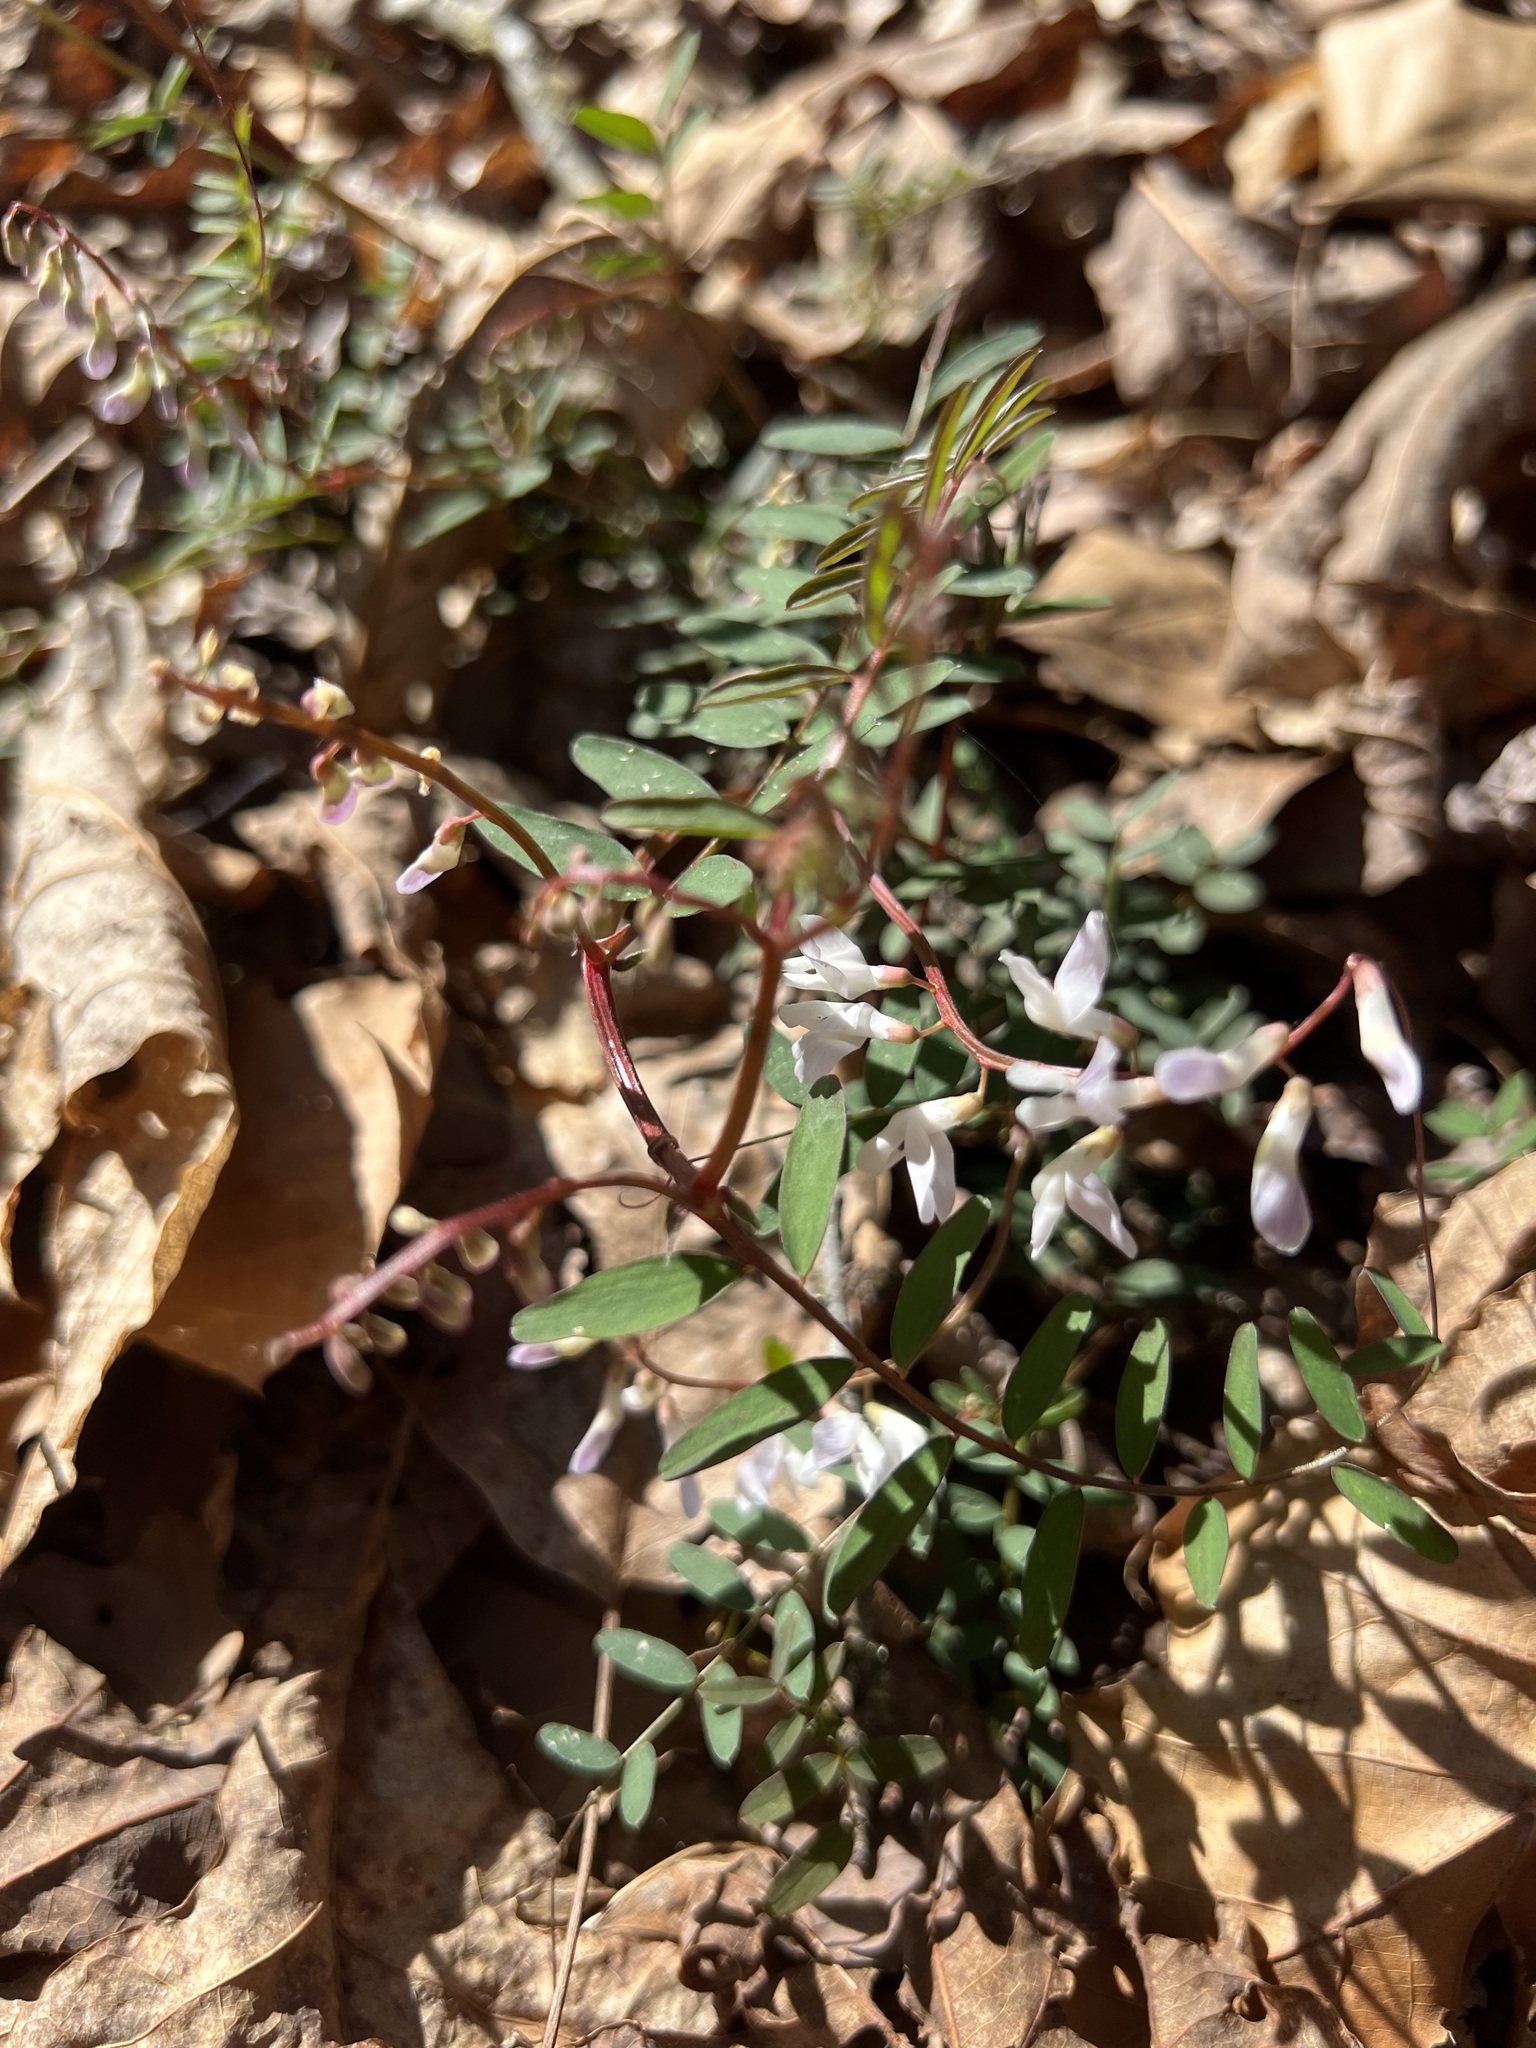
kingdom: Plantae
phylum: Tracheophyta
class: Magnoliopsida
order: Fabales
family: Fabaceae
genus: Vicia
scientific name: Vicia caroliniana
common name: Carolina vetch
